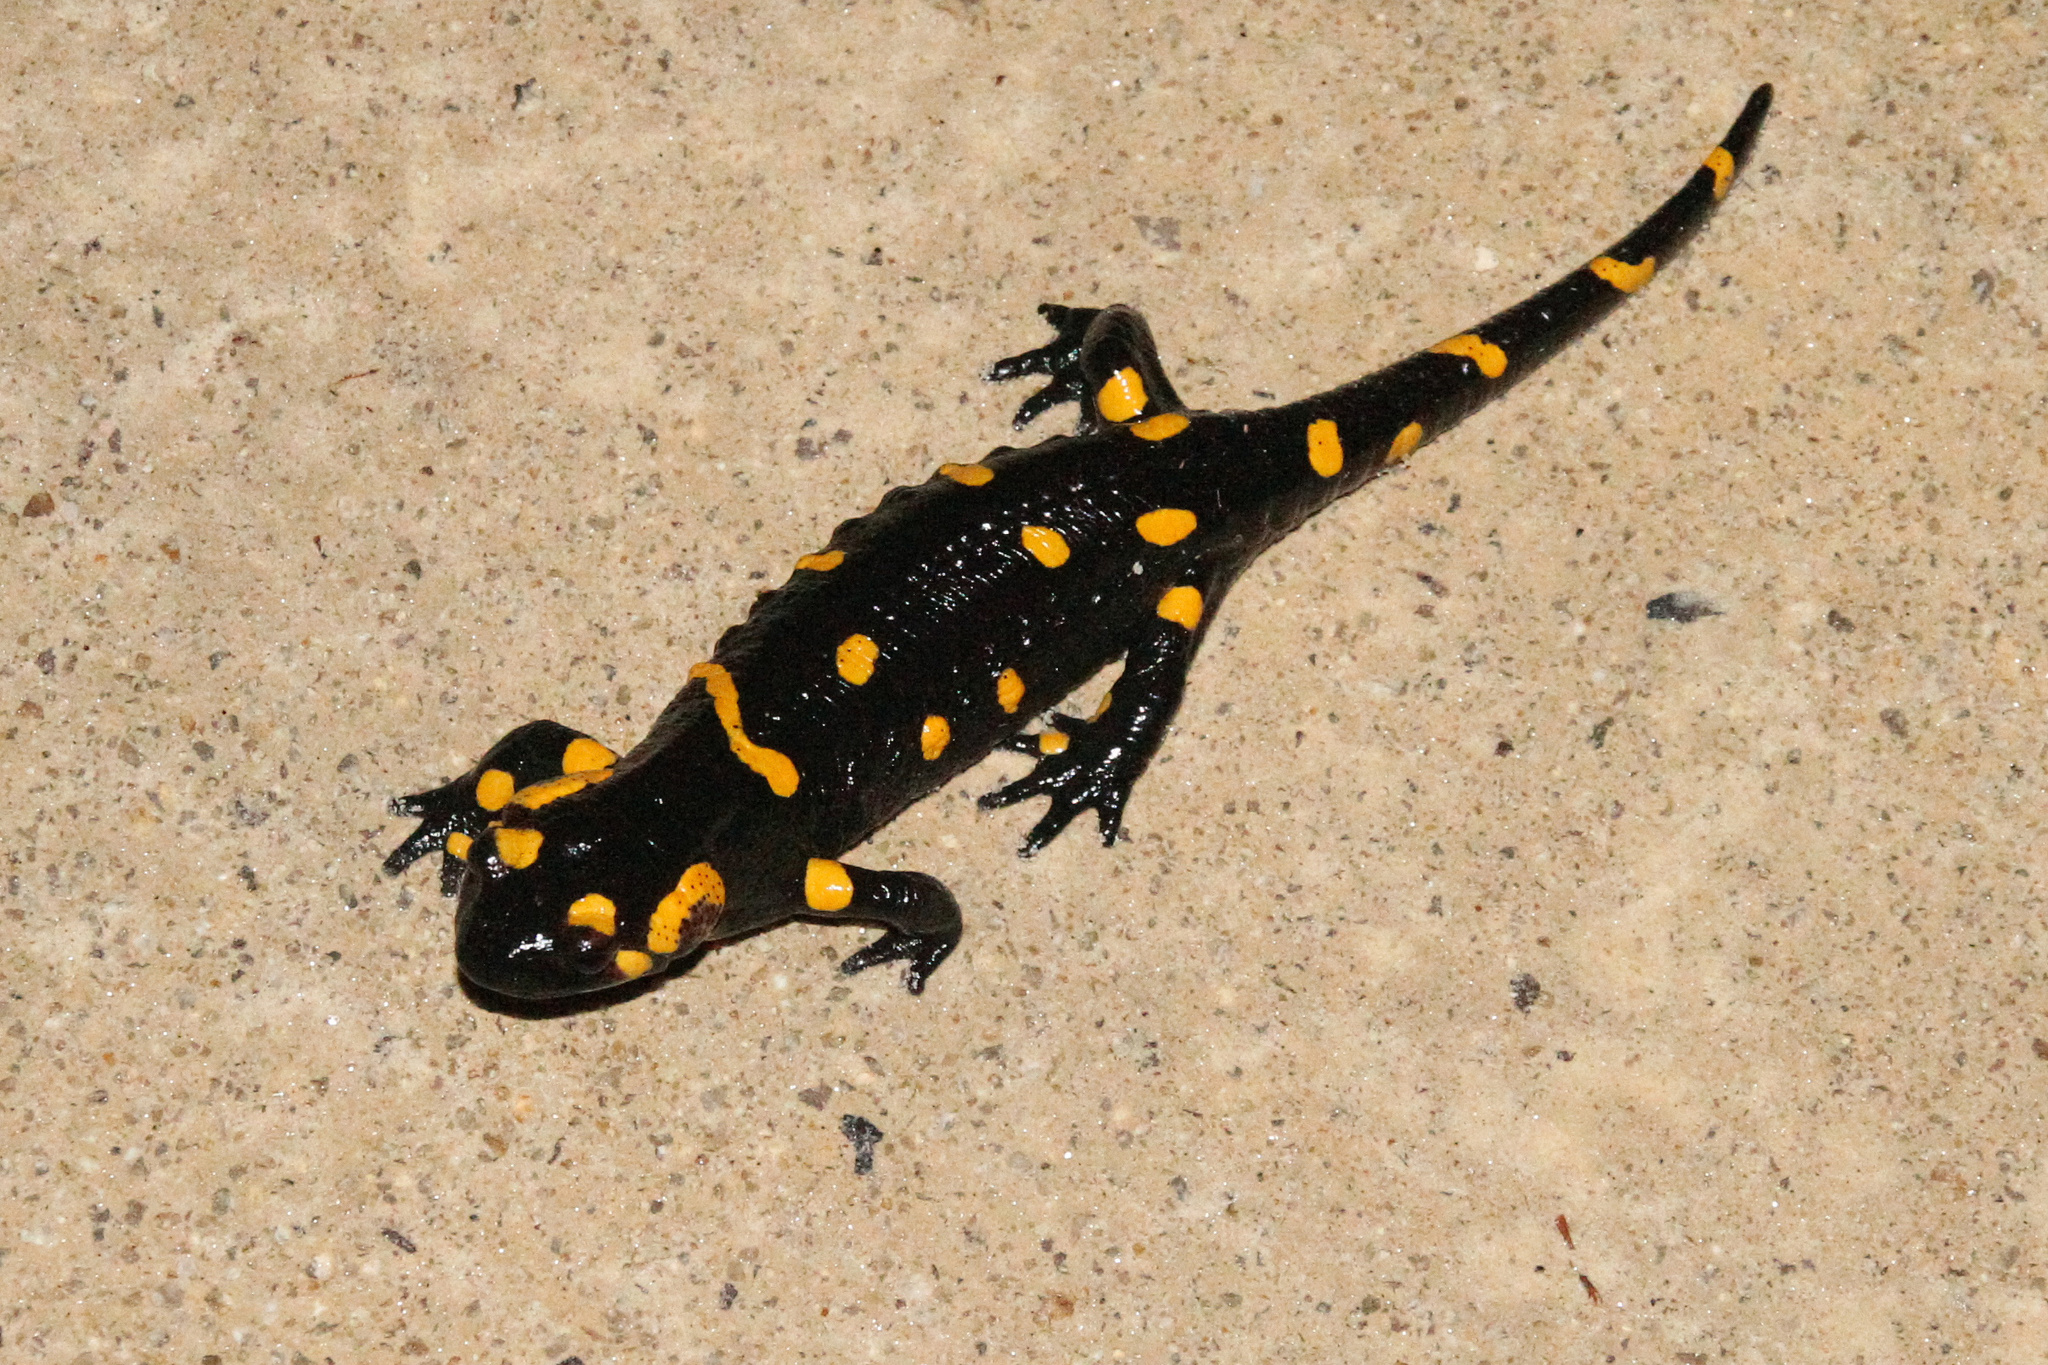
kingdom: Animalia
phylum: Chordata
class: Amphibia
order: Caudata
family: Salamandridae
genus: Salamandra
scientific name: Salamandra salamandra
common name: Fire salamander
